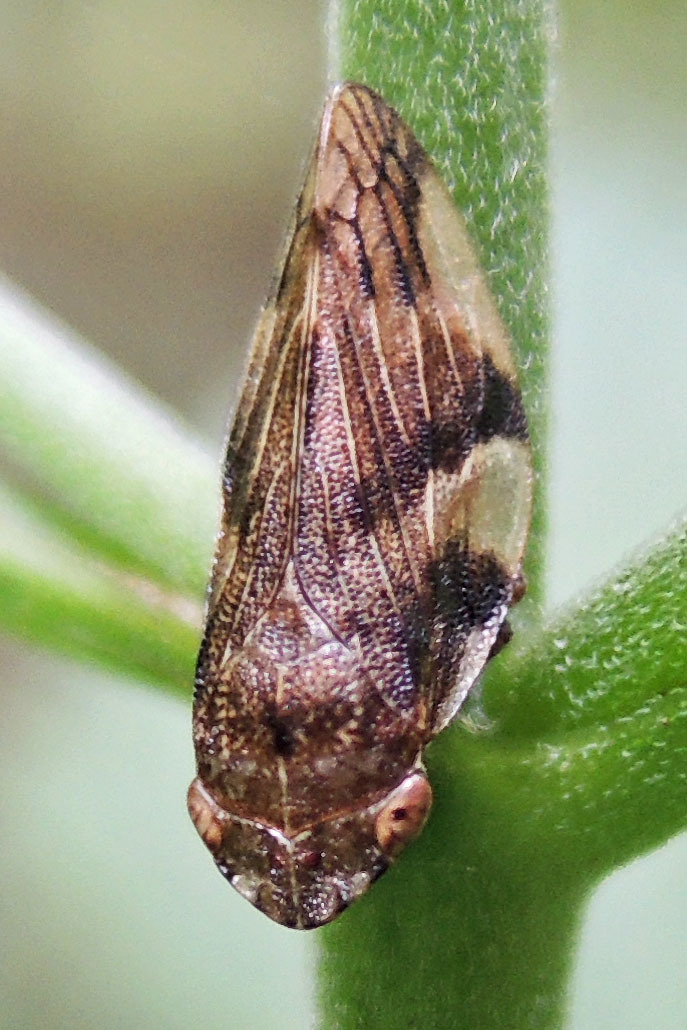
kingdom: Animalia
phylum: Arthropoda
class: Insecta
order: Hemiptera
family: Aphrophoridae
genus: Aphrophora
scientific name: Aphrophora quadrinotata
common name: Four-spotted spittlebug
